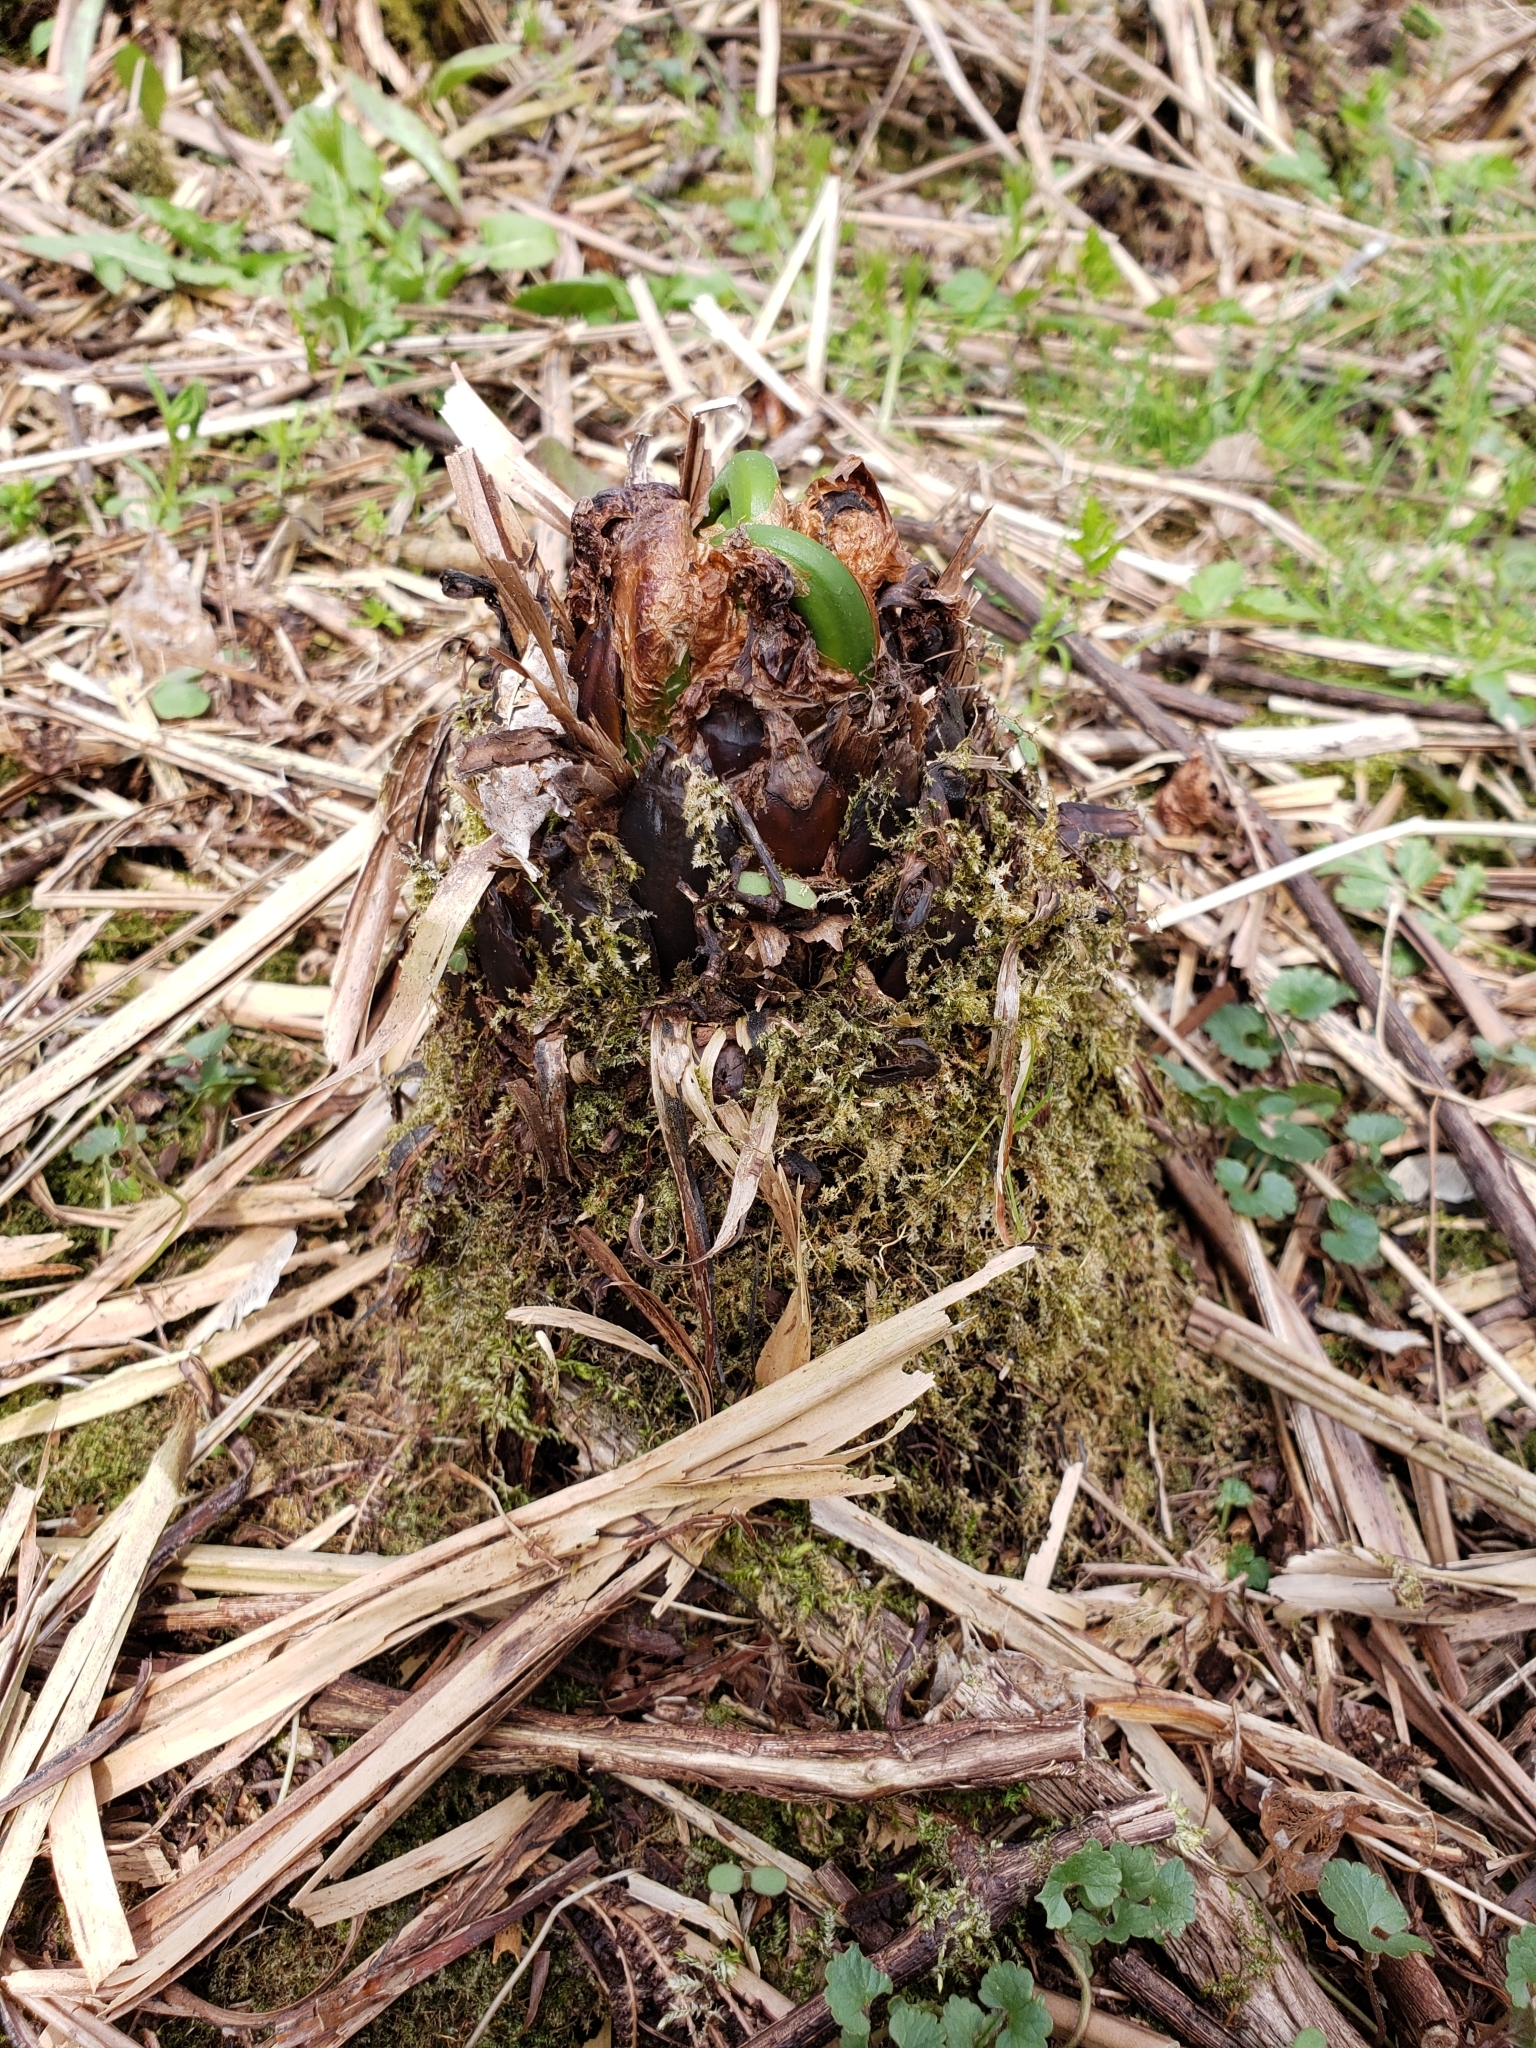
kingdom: Plantae
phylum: Tracheophyta
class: Polypodiopsida
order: Polypodiales
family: Onocleaceae
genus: Matteuccia
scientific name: Matteuccia struthiopteris
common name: Ostrich fern
